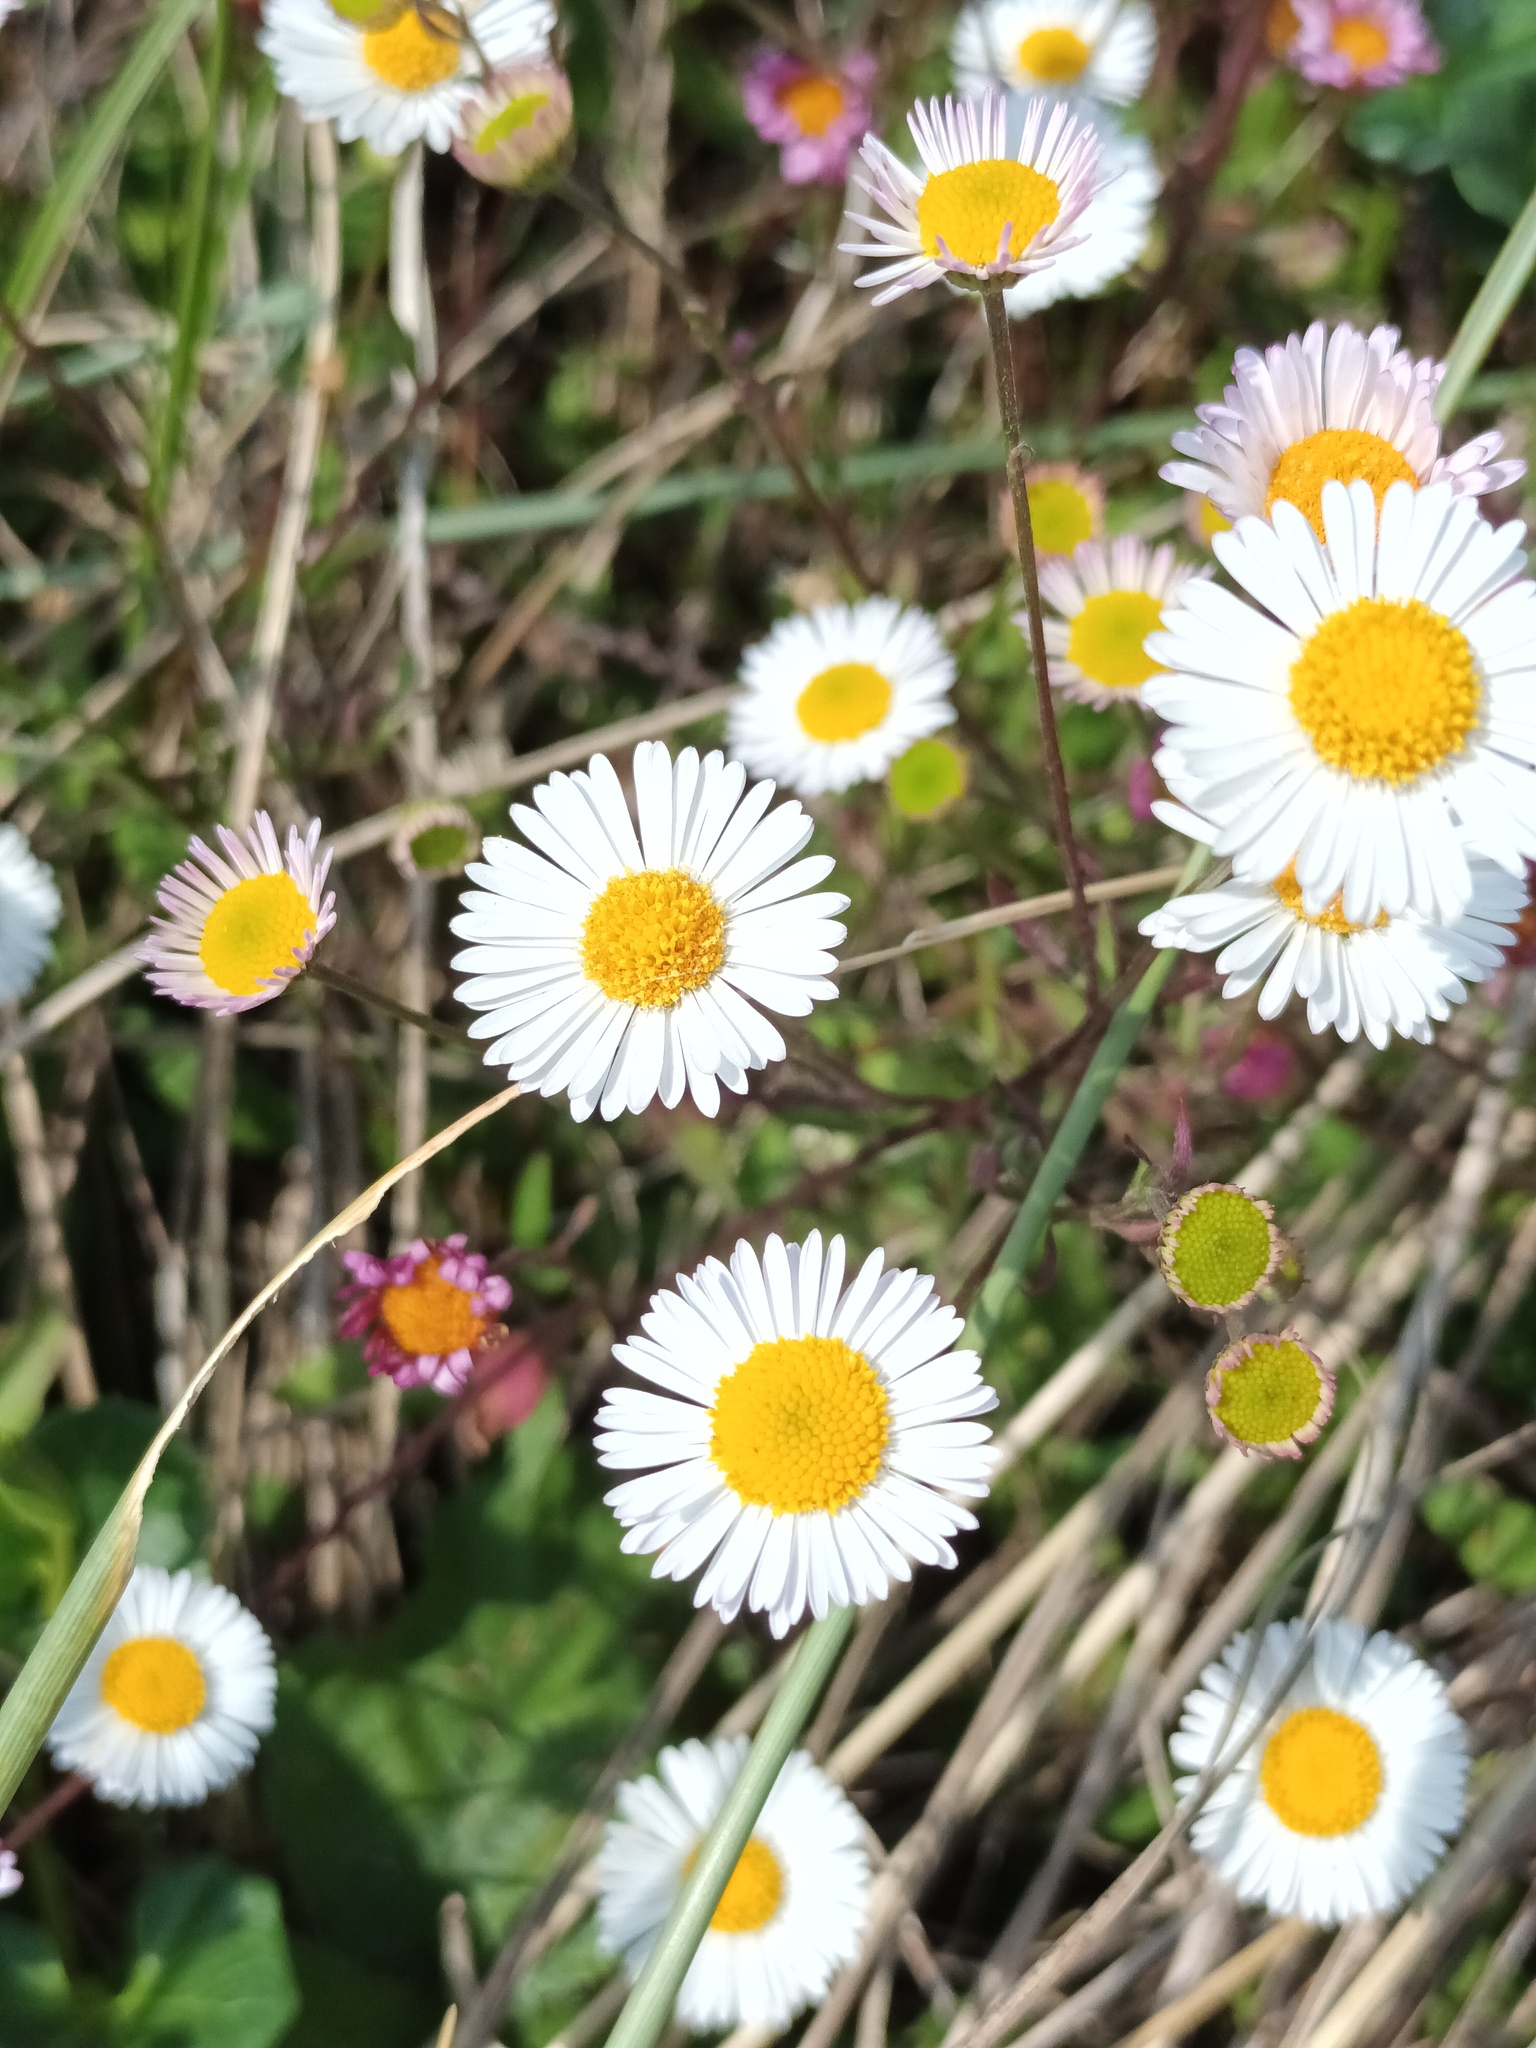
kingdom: Plantae
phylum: Tracheophyta
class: Magnoliopsida
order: Asterales
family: Asteraceae
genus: Erigeron
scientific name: Erigeron karvinskianus
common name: Mexican fleabane
